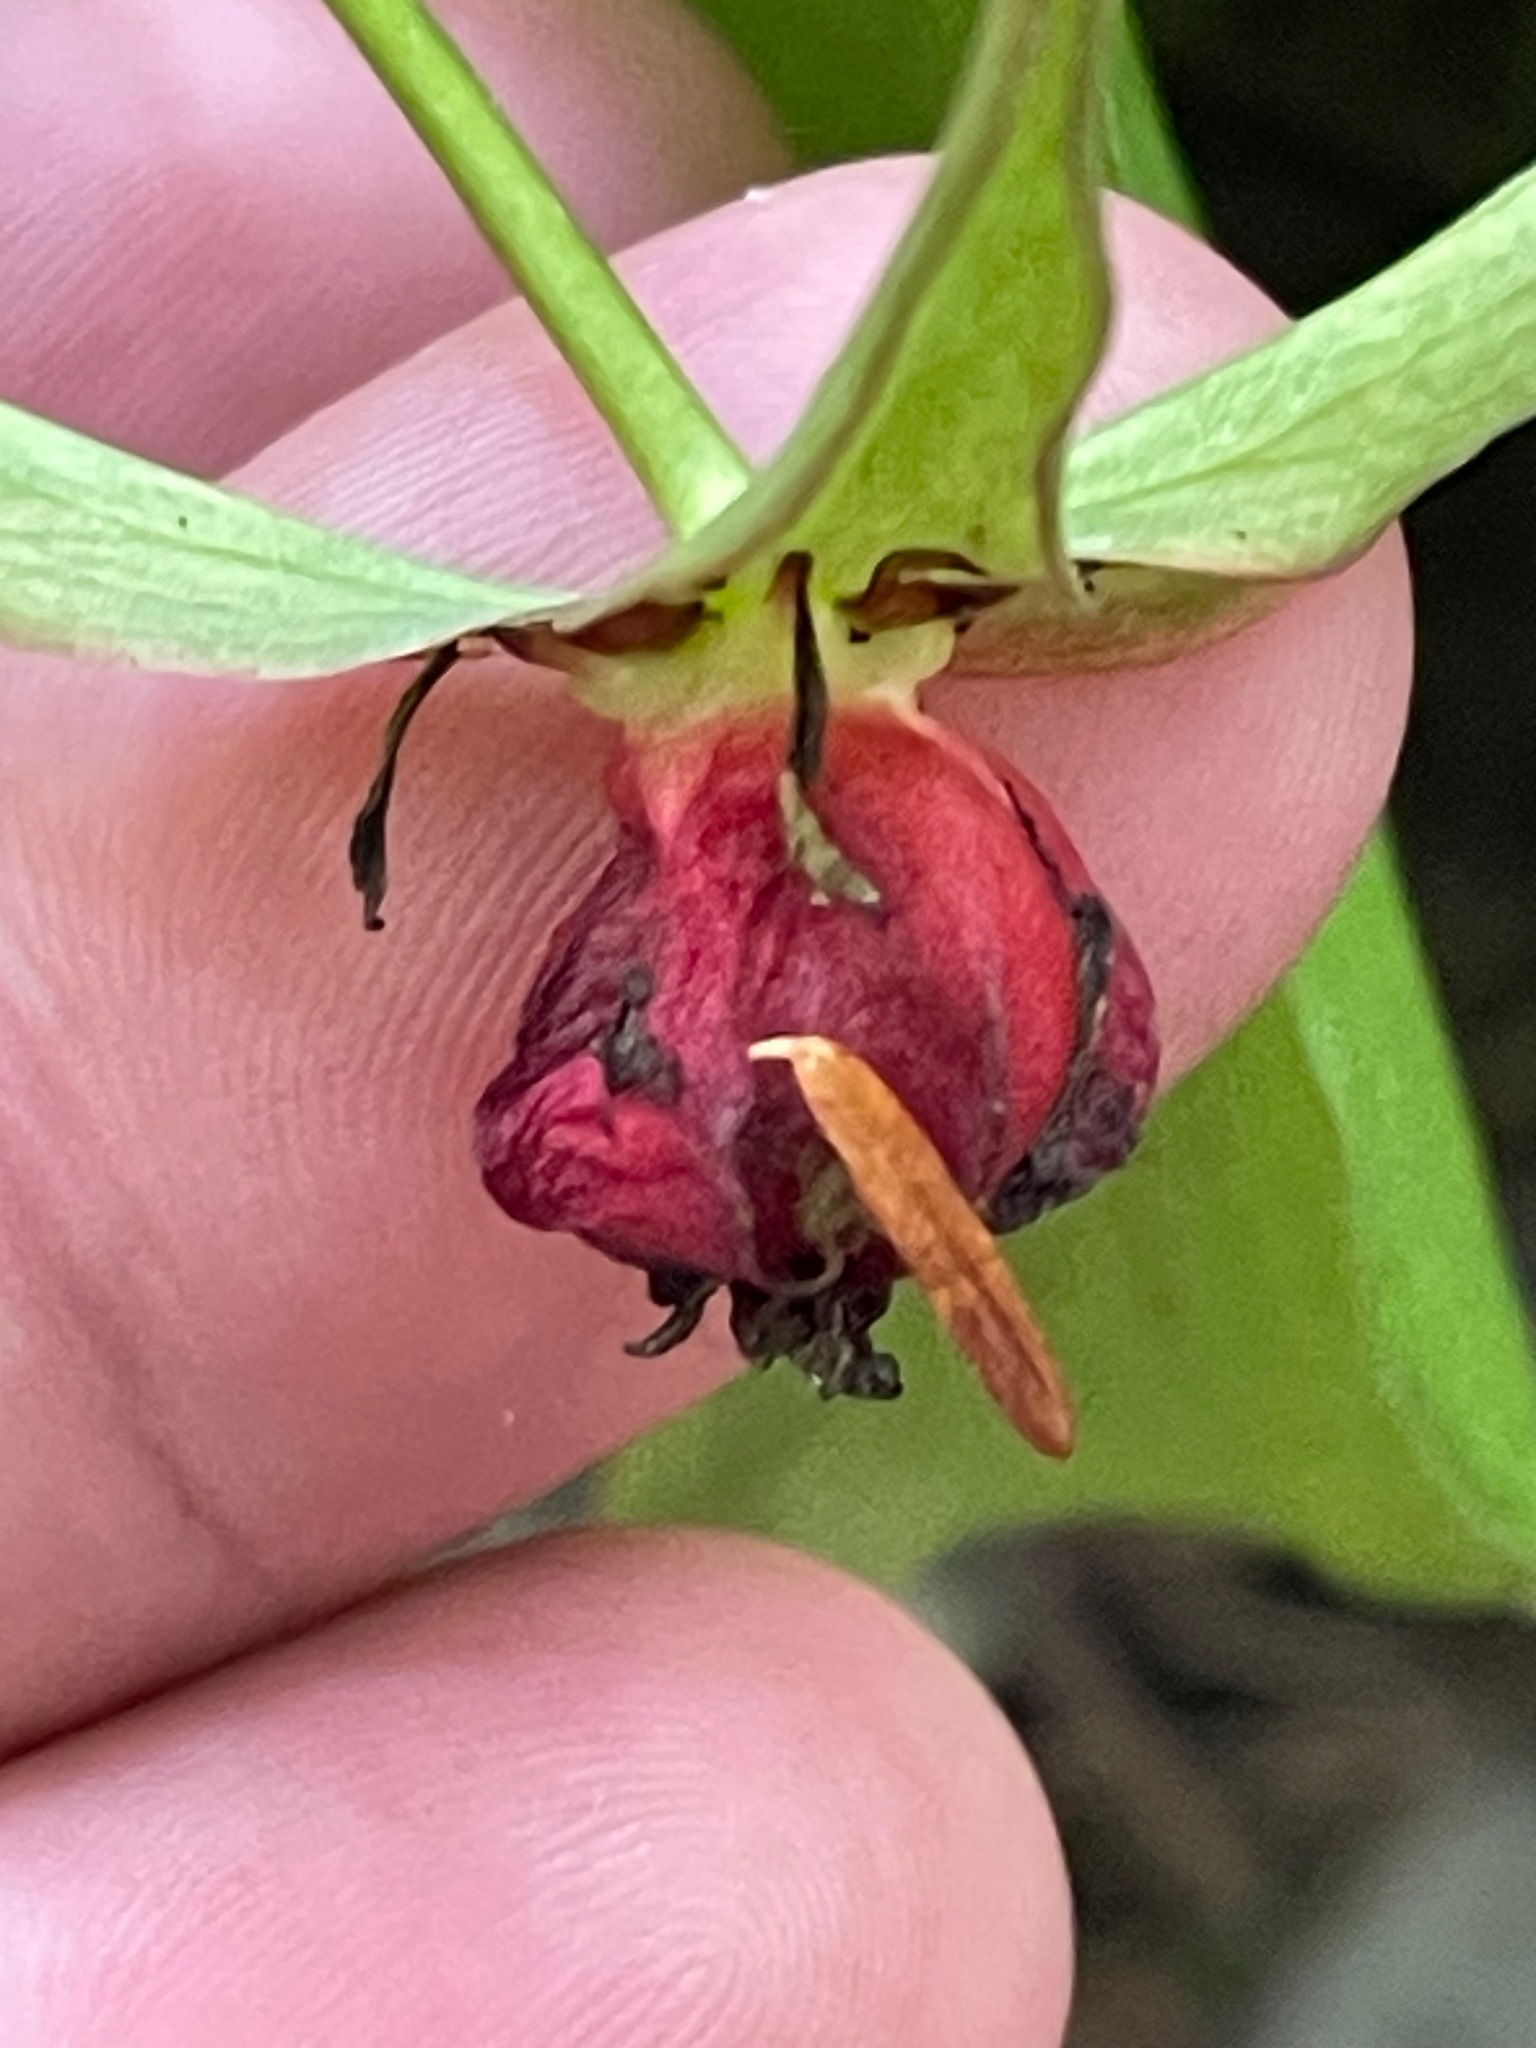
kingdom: Plantae
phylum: Tracheophyta
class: Liliopsida
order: Liliales
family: Melanthiaceae
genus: Trillium
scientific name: Trillium erectum
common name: Purple trillium
